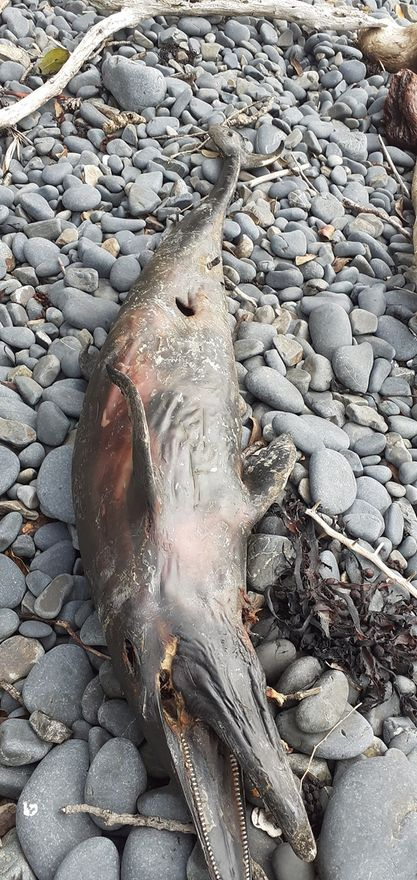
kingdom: Animalia
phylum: Chordata
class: Mammalia
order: Cetacea
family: Delphinidae
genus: Delphinus
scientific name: Delphinus delphis
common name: Common dolphin
